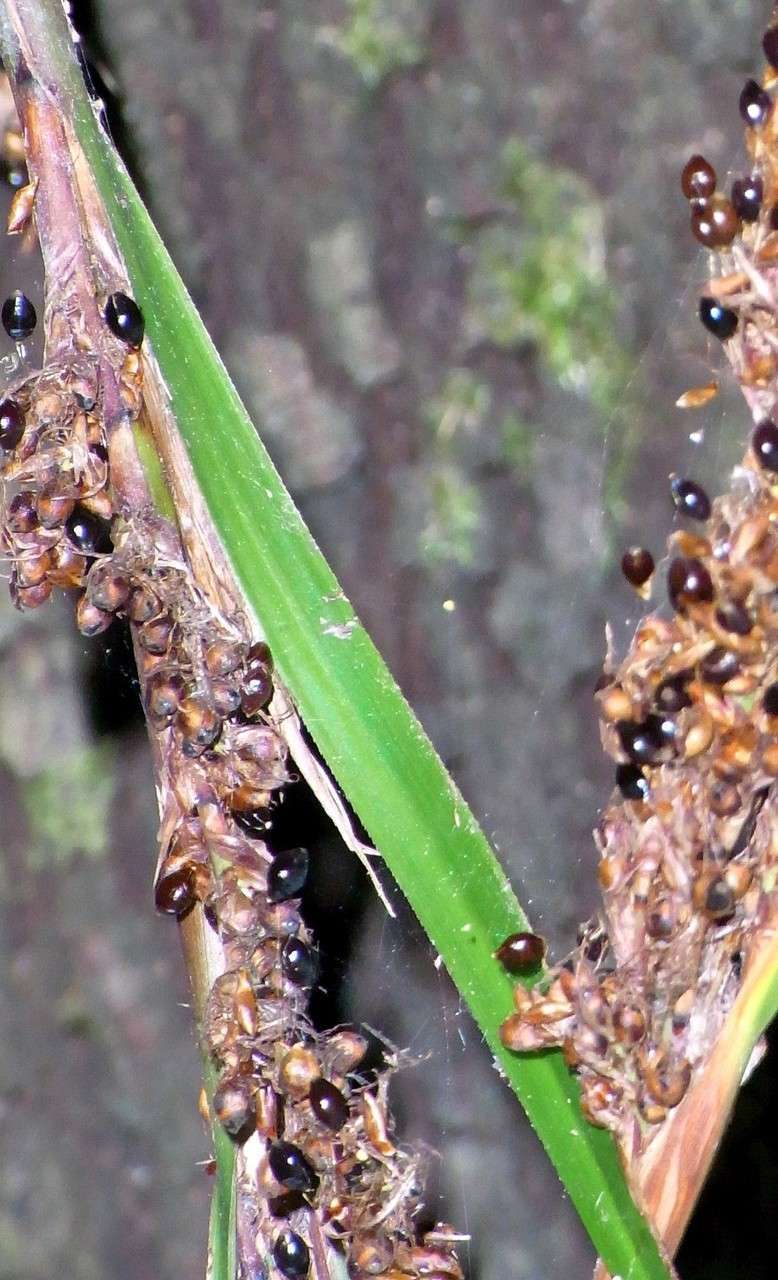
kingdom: Plantae
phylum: Tracheophyta
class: Liliopsida
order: Poales
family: Cyperaceae
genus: Gahnia
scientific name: Gahnia melanocarpa
